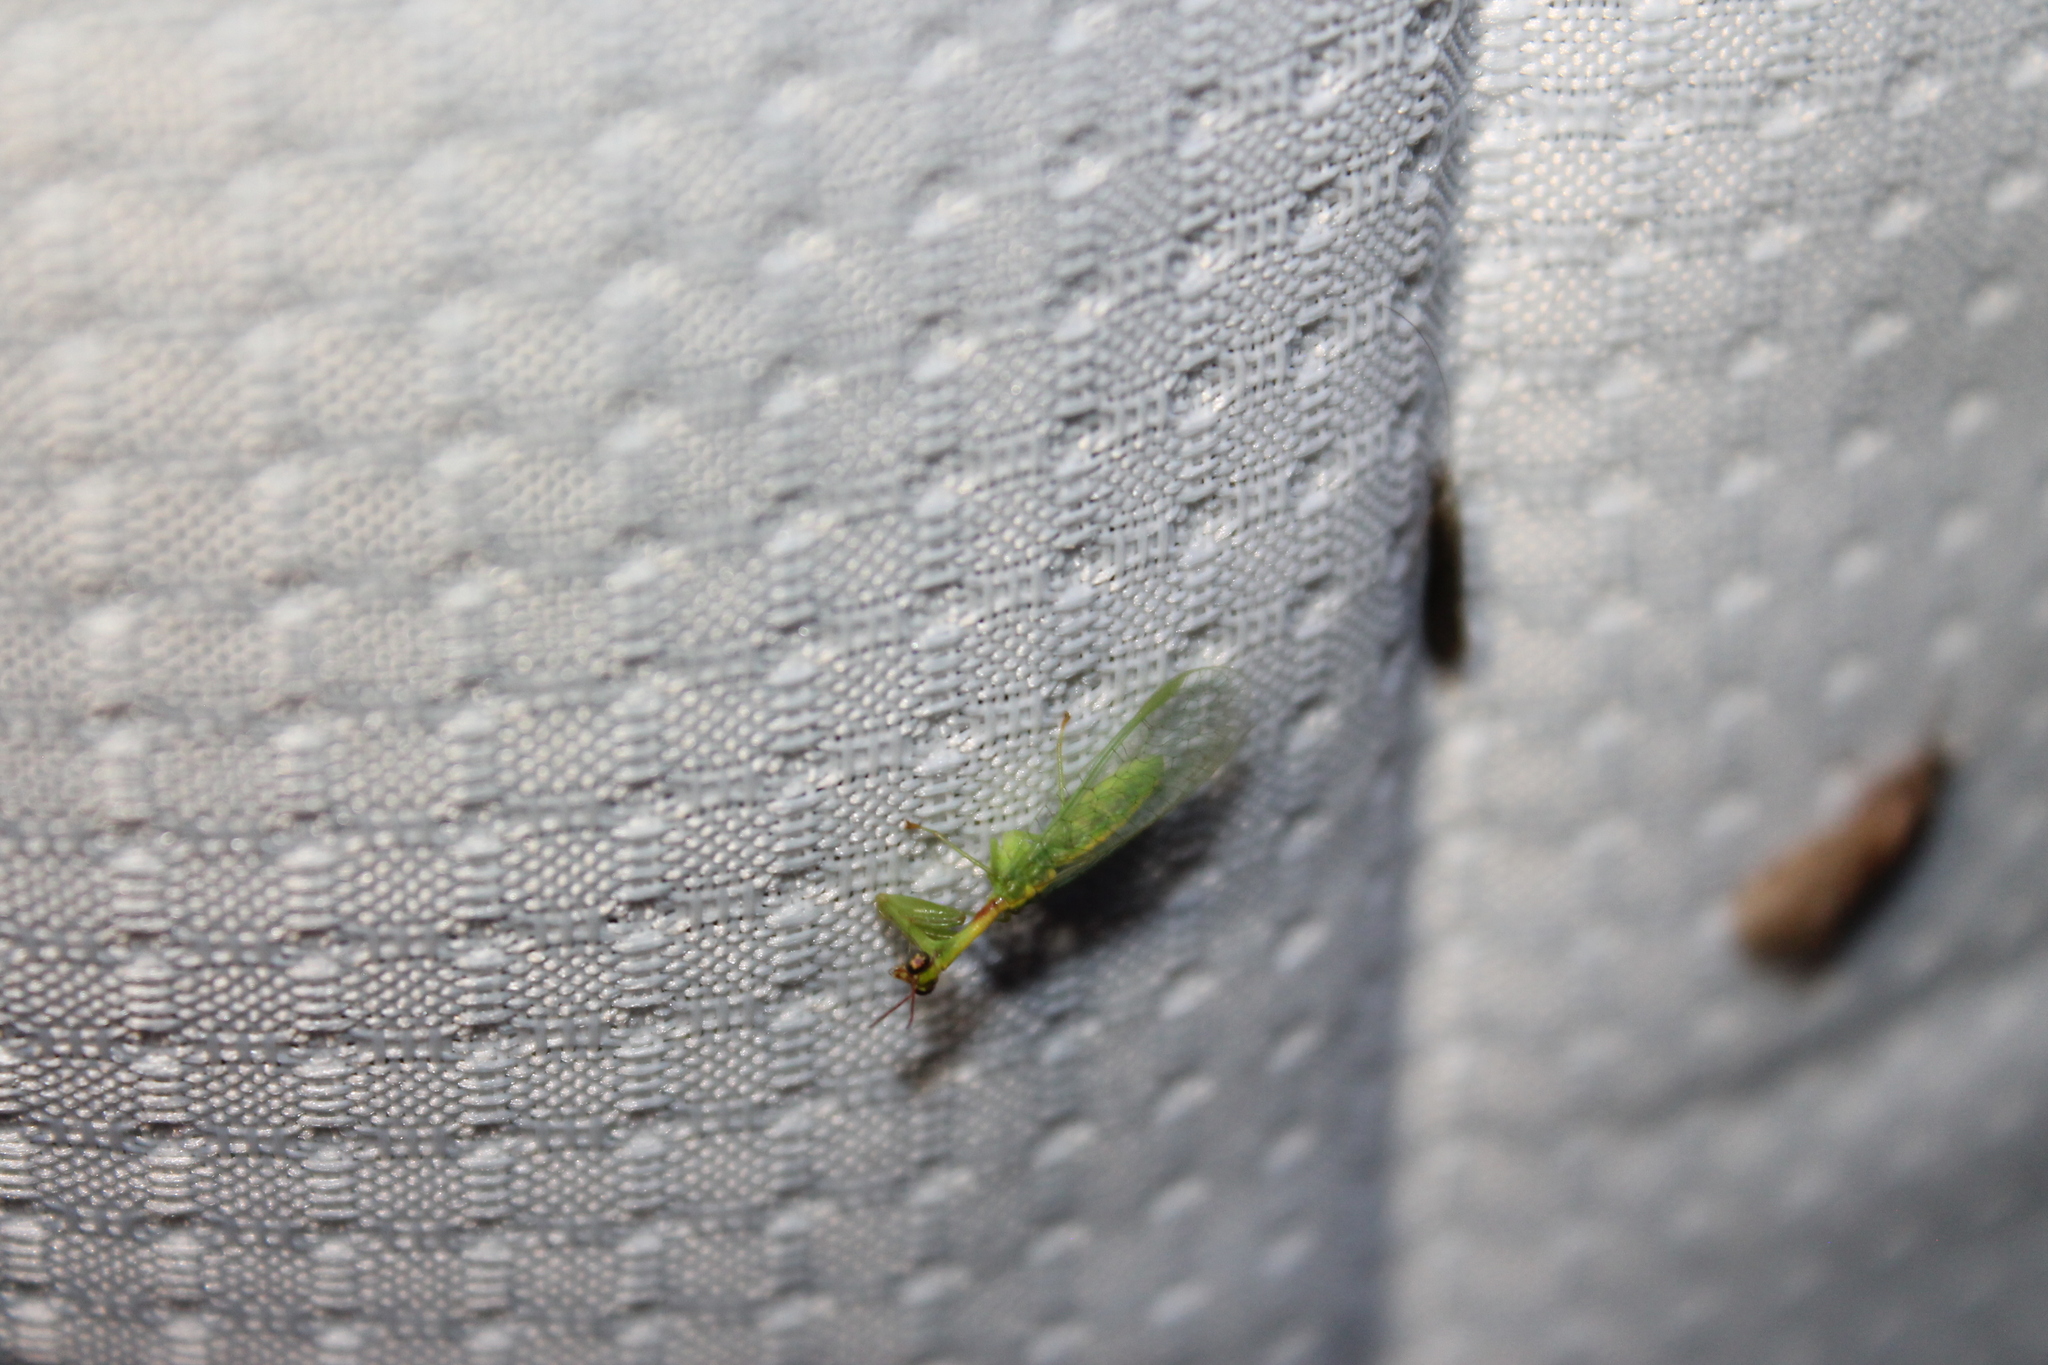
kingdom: Animalia
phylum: Arthropoda
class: Insecta
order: Neuroptera
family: Mantispidae
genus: Zeugomantispa
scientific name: Zeugomantispa minuta
